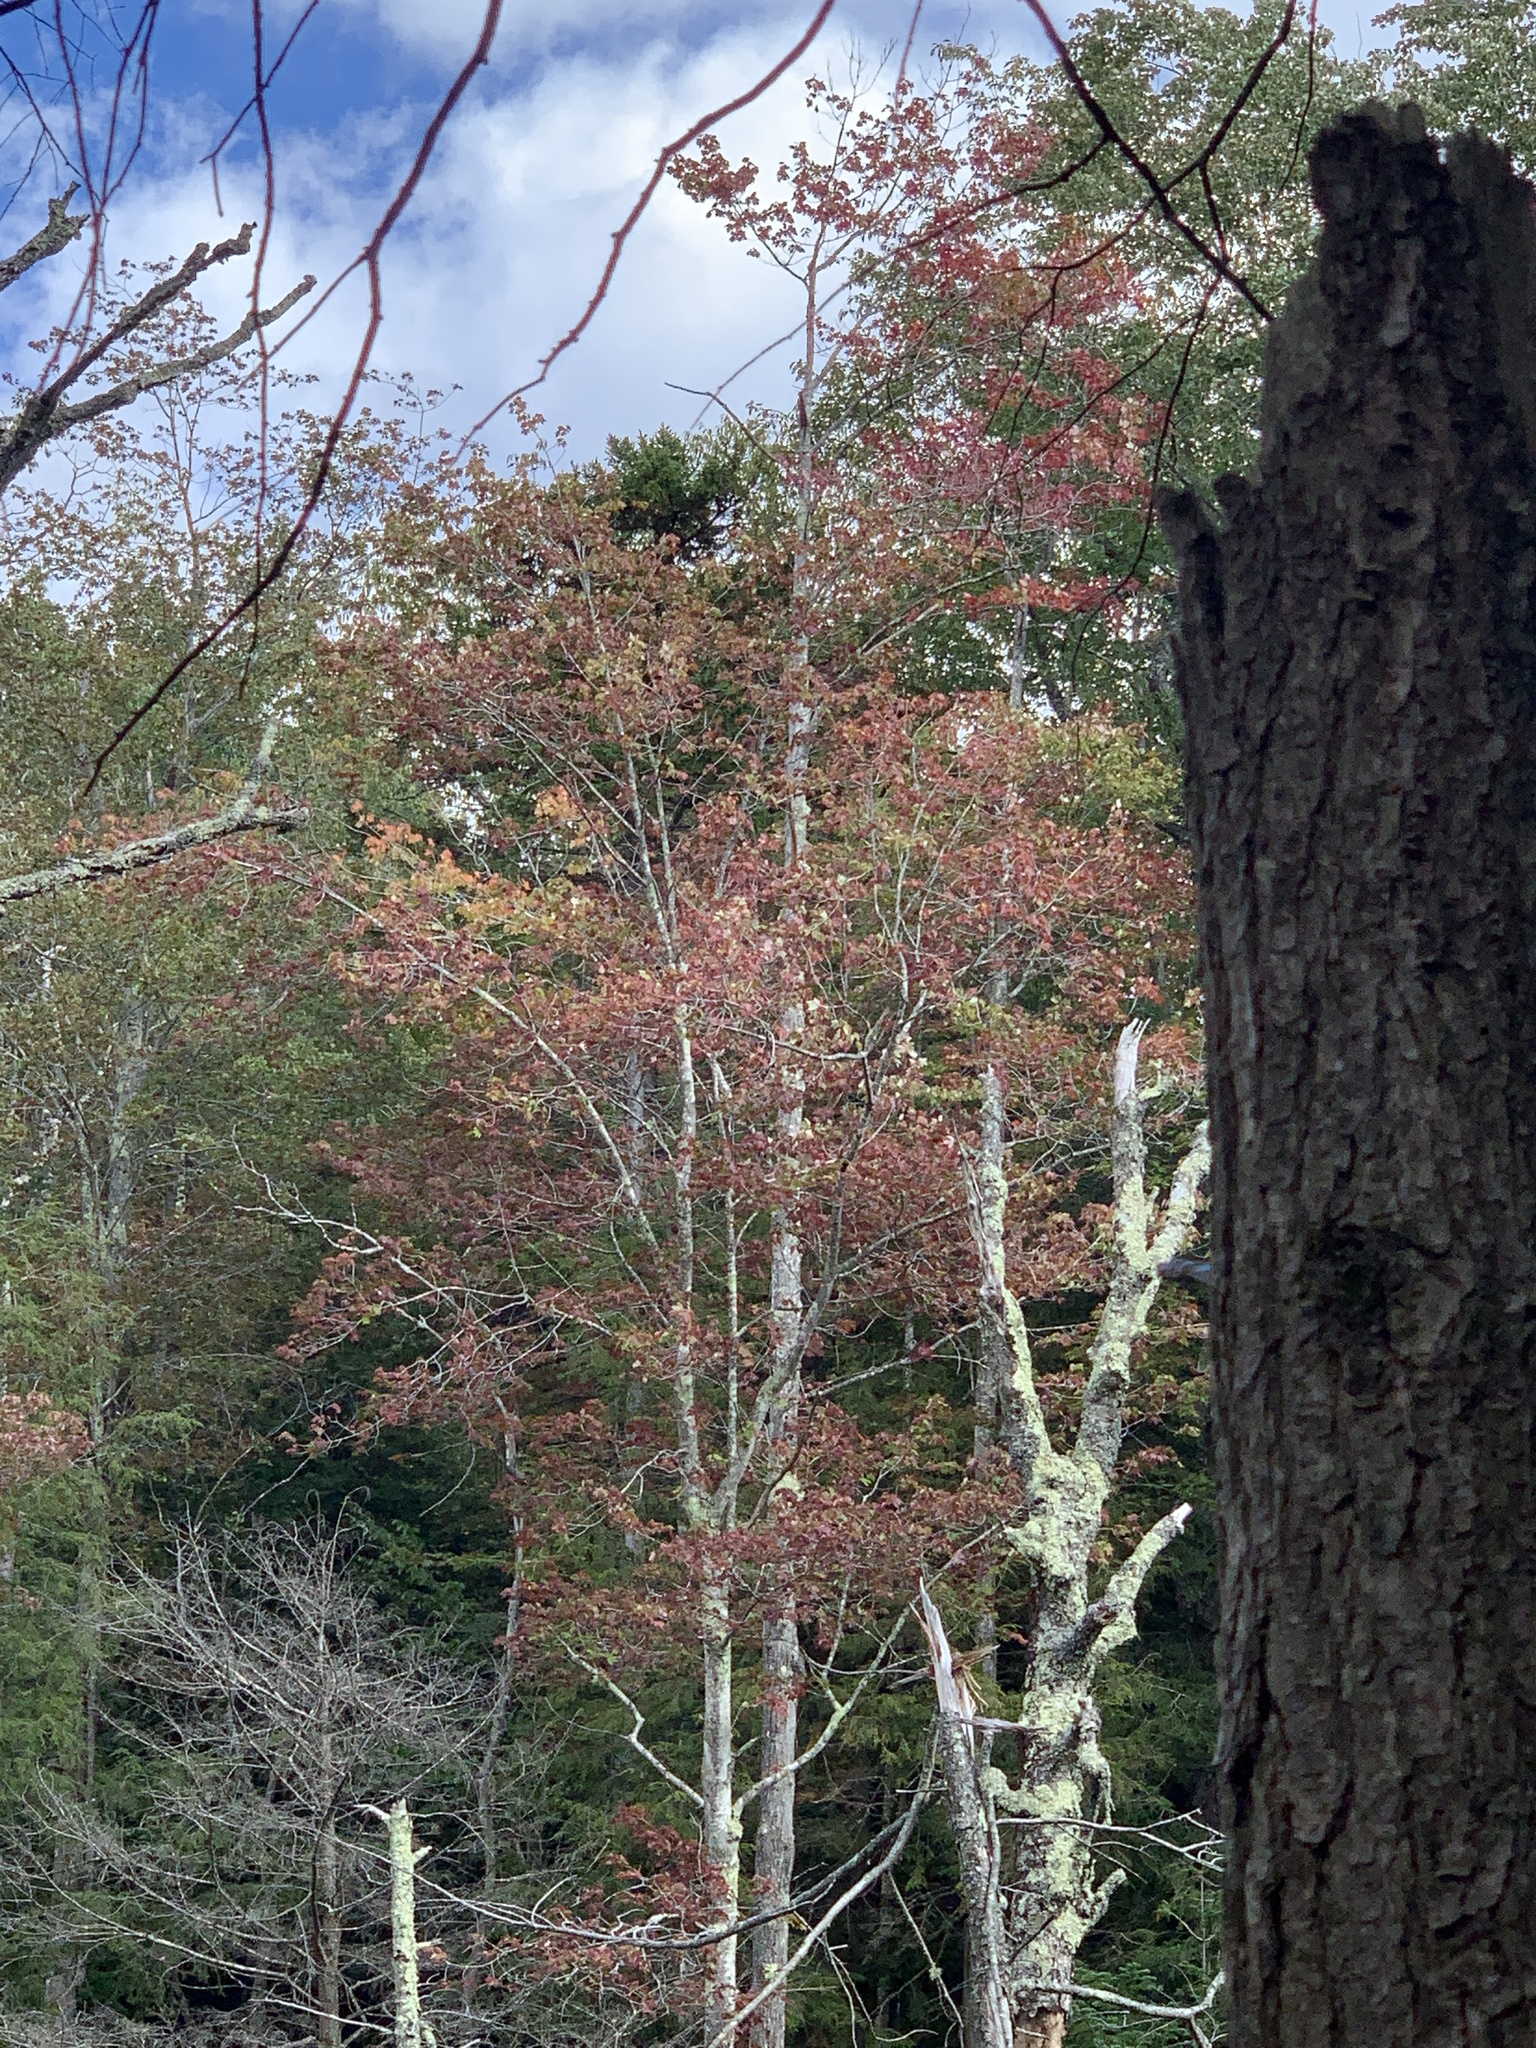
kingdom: Plantae
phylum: Tracheophyta
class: Magnoliopsida
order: Sapindales
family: Sapindaceae
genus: Acer
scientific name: Acer rubrum
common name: Red maple
